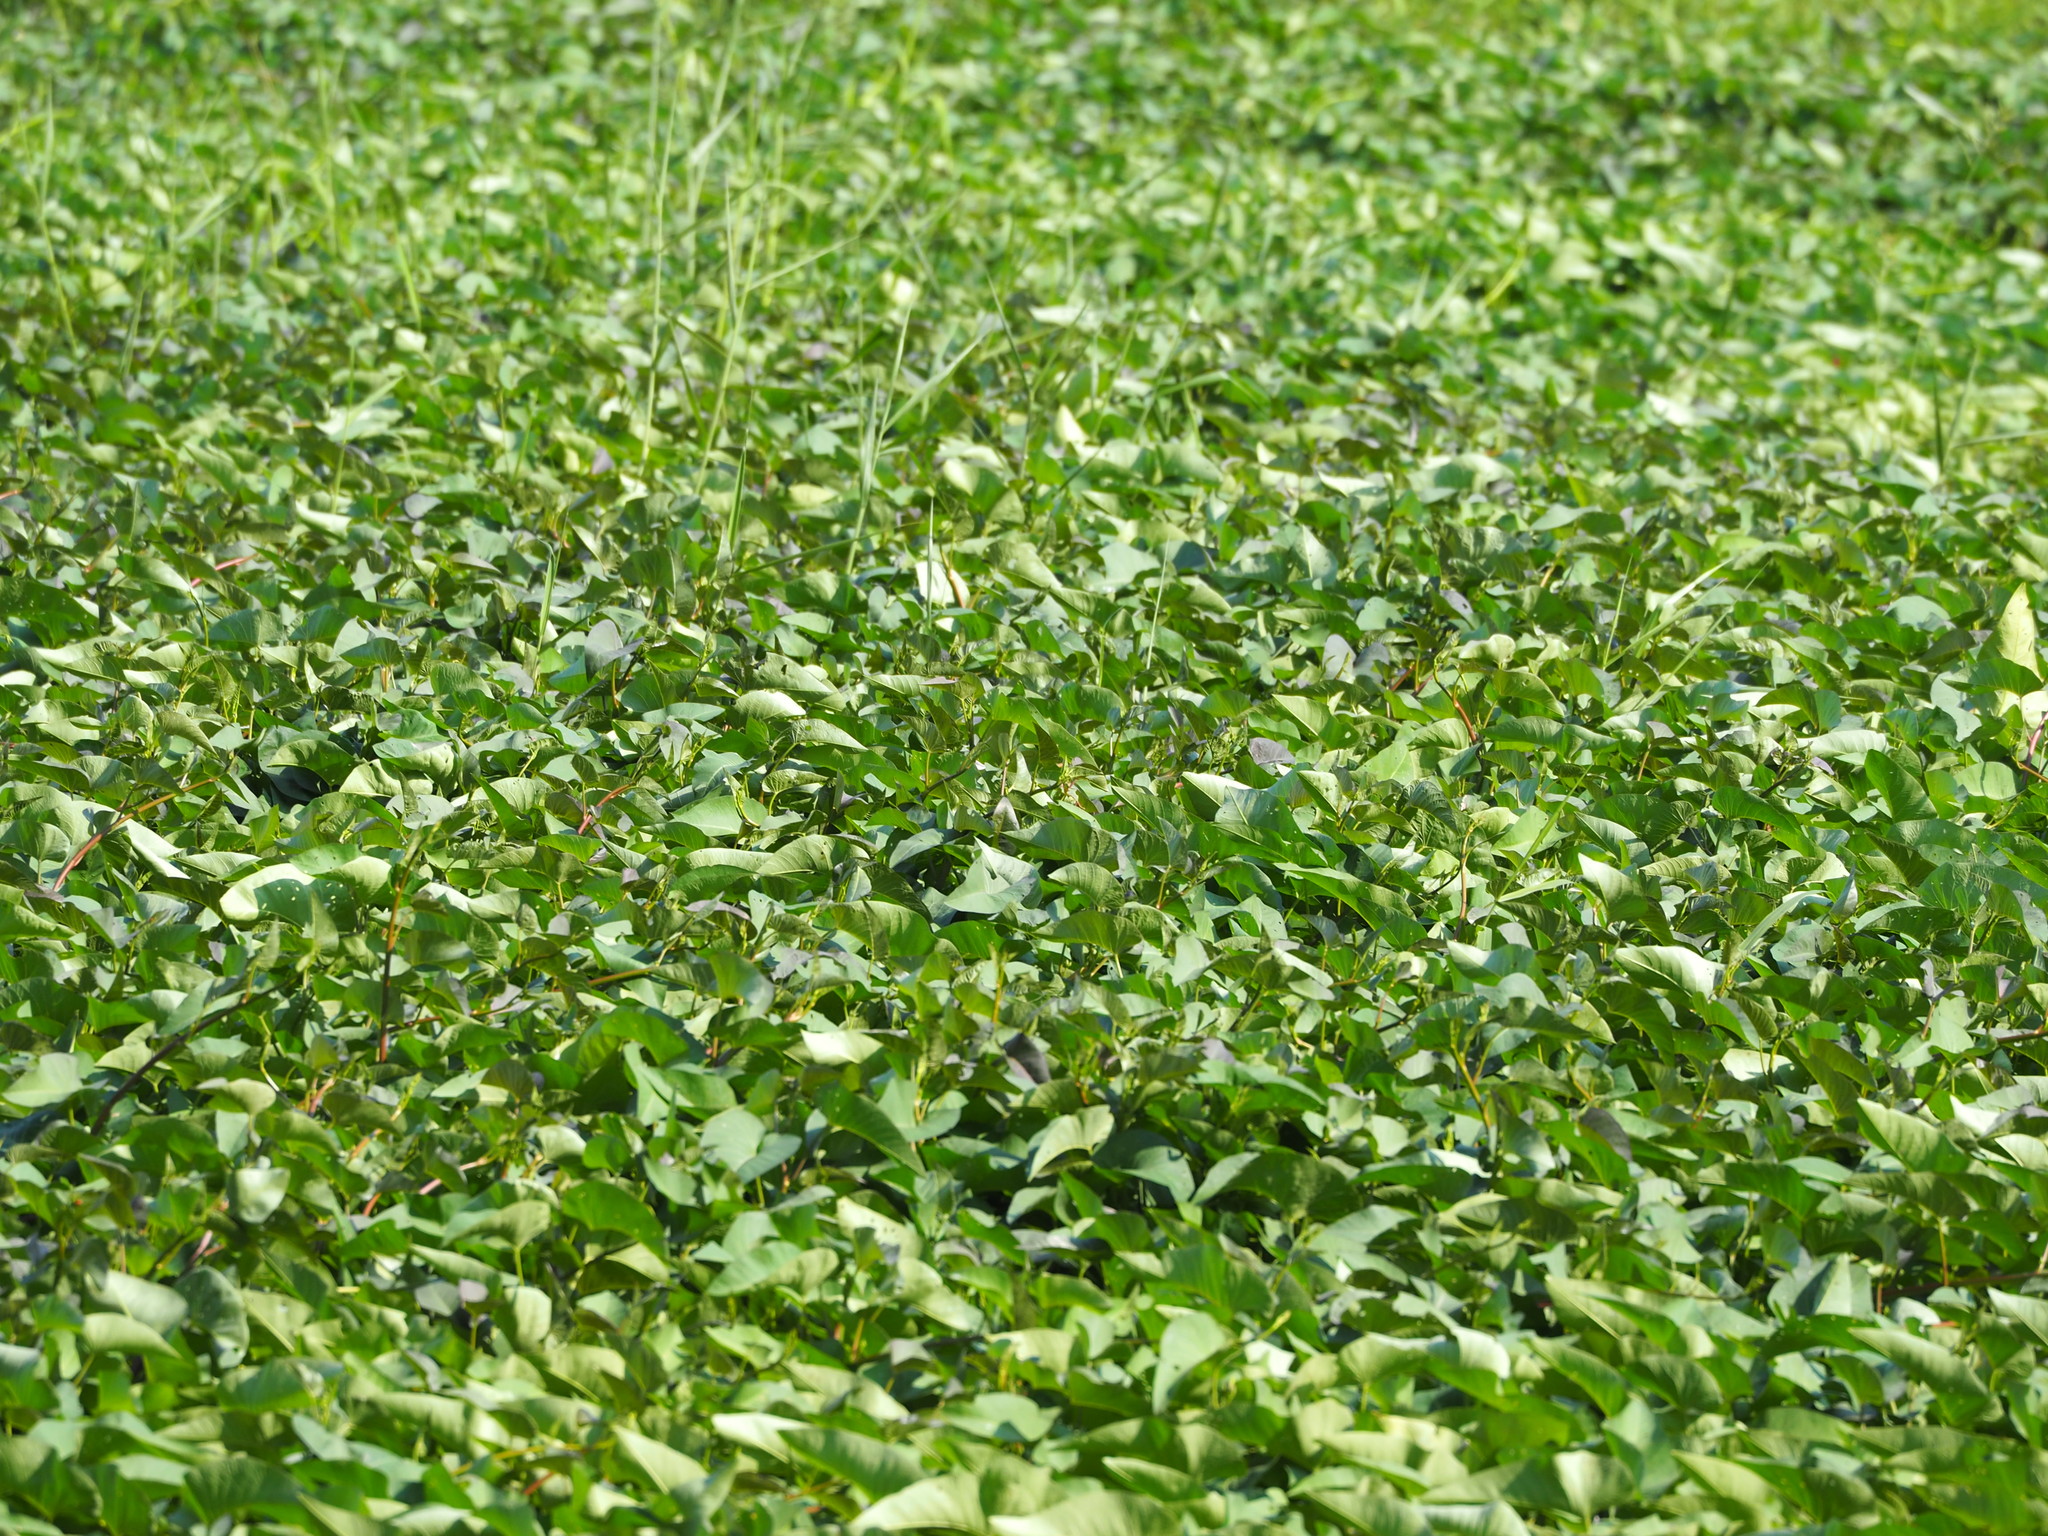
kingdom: Plantae
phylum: Tracheophyta
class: Magnoliopsida
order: Solanales
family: Convolvulaceae
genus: Ipomoea
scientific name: Ipomoea aquatica
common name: Swamp morning-glory
